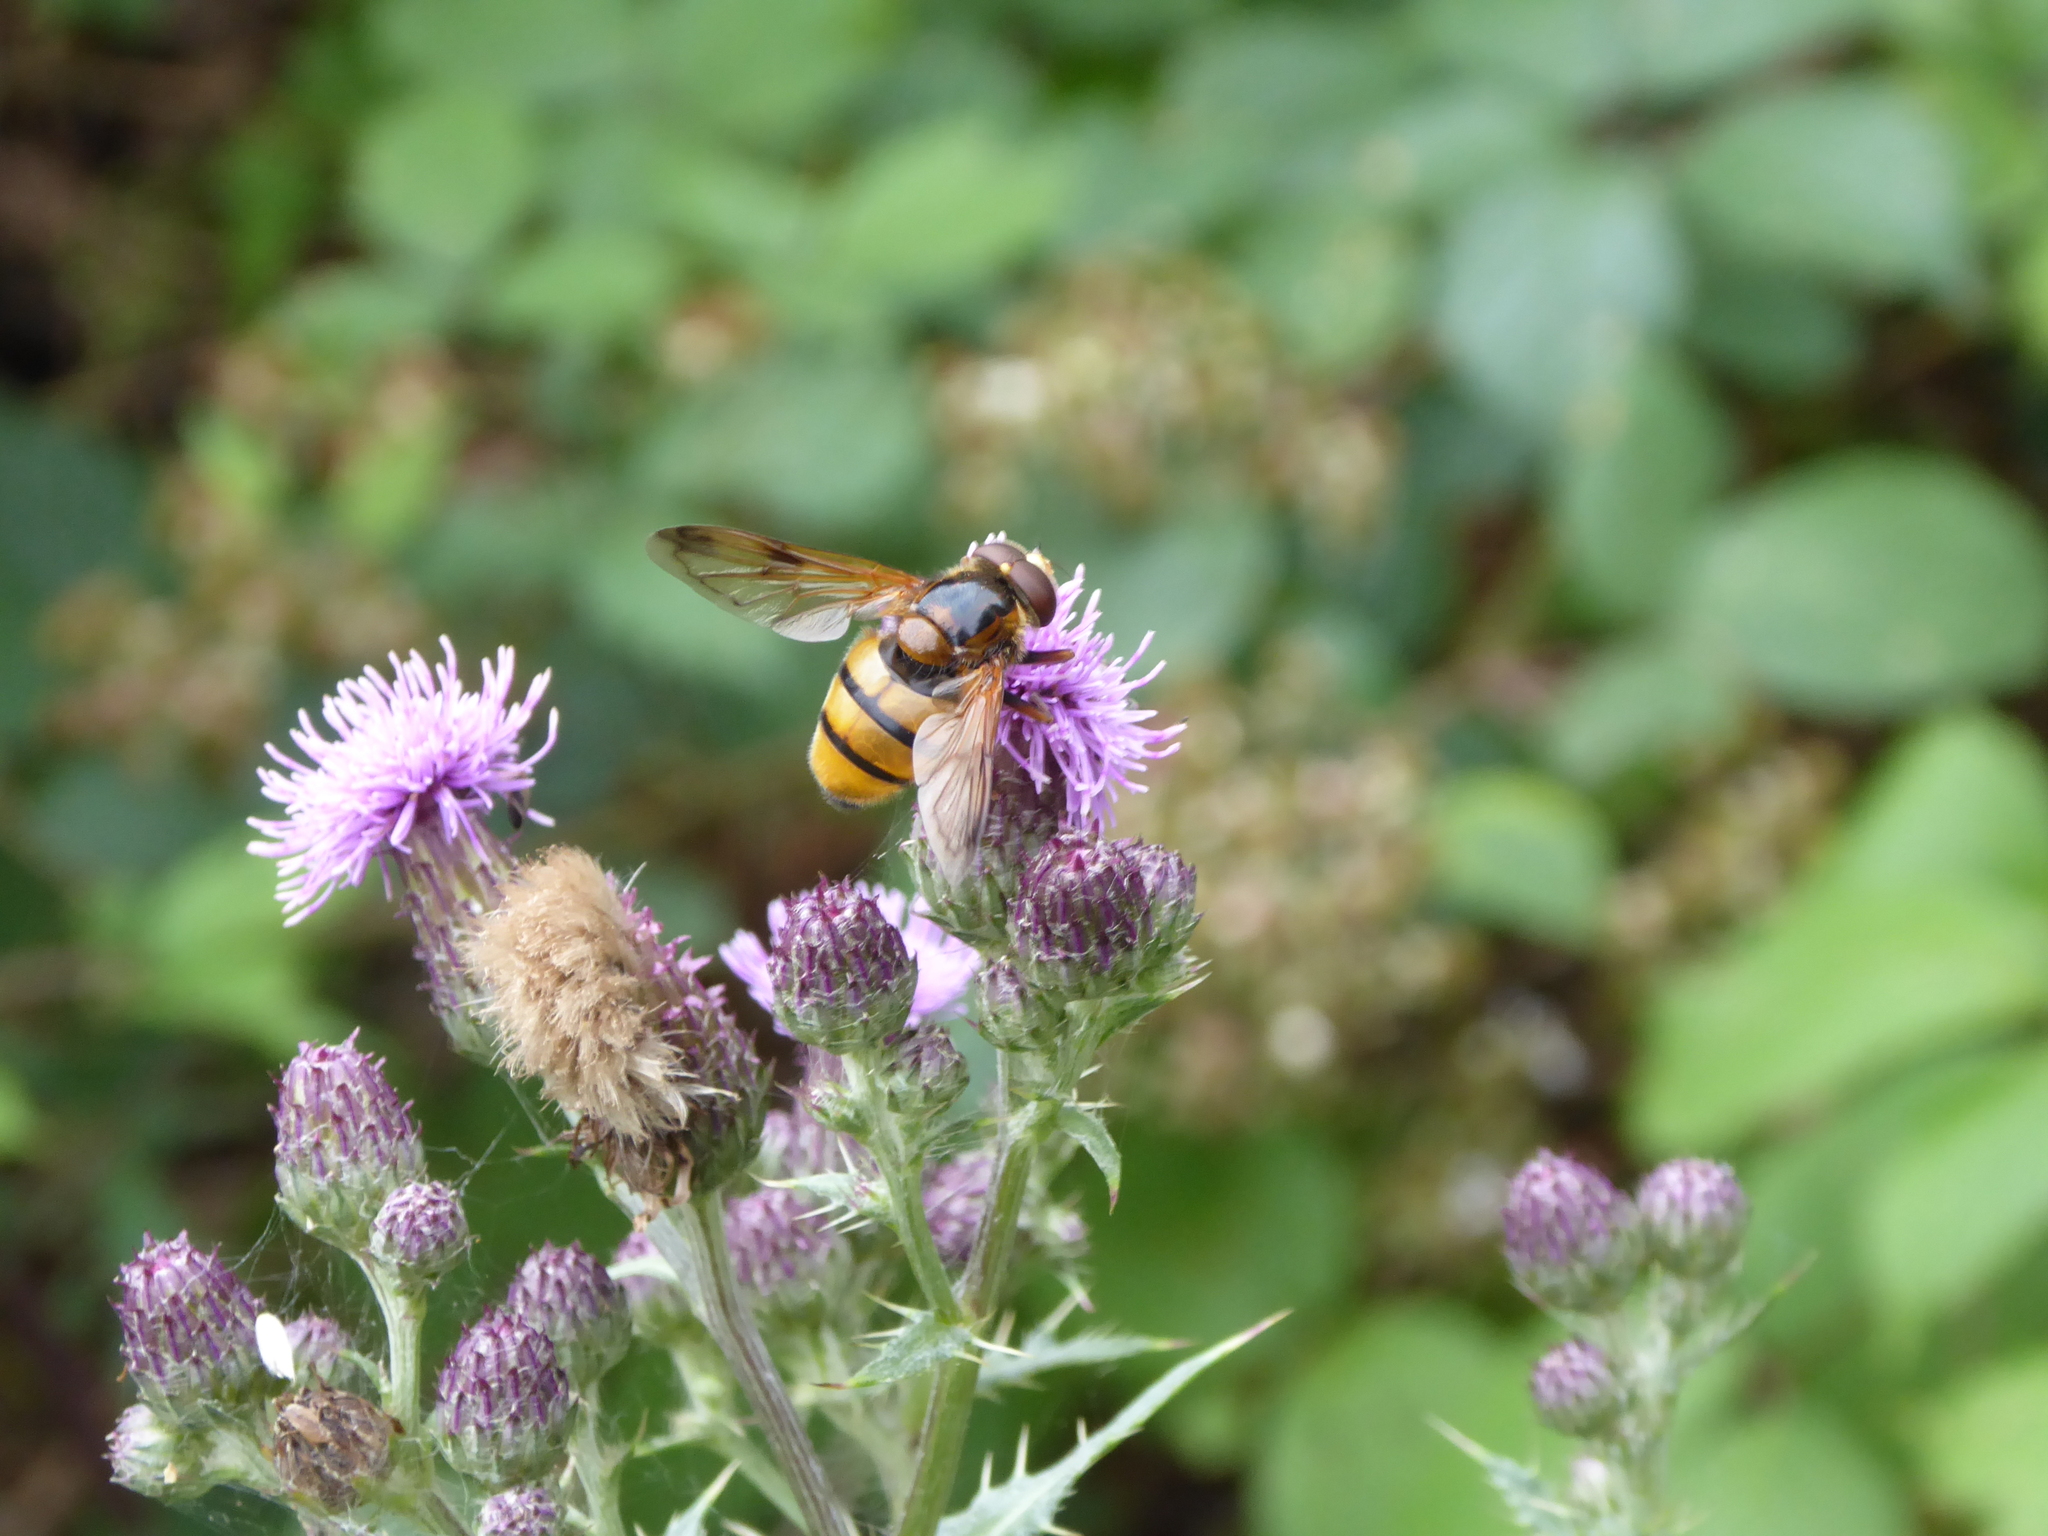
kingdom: Animalia
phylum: Arthropoda
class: Insecta
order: Diptera
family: Syrphidae
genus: Volucella
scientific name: Volucella inanis
